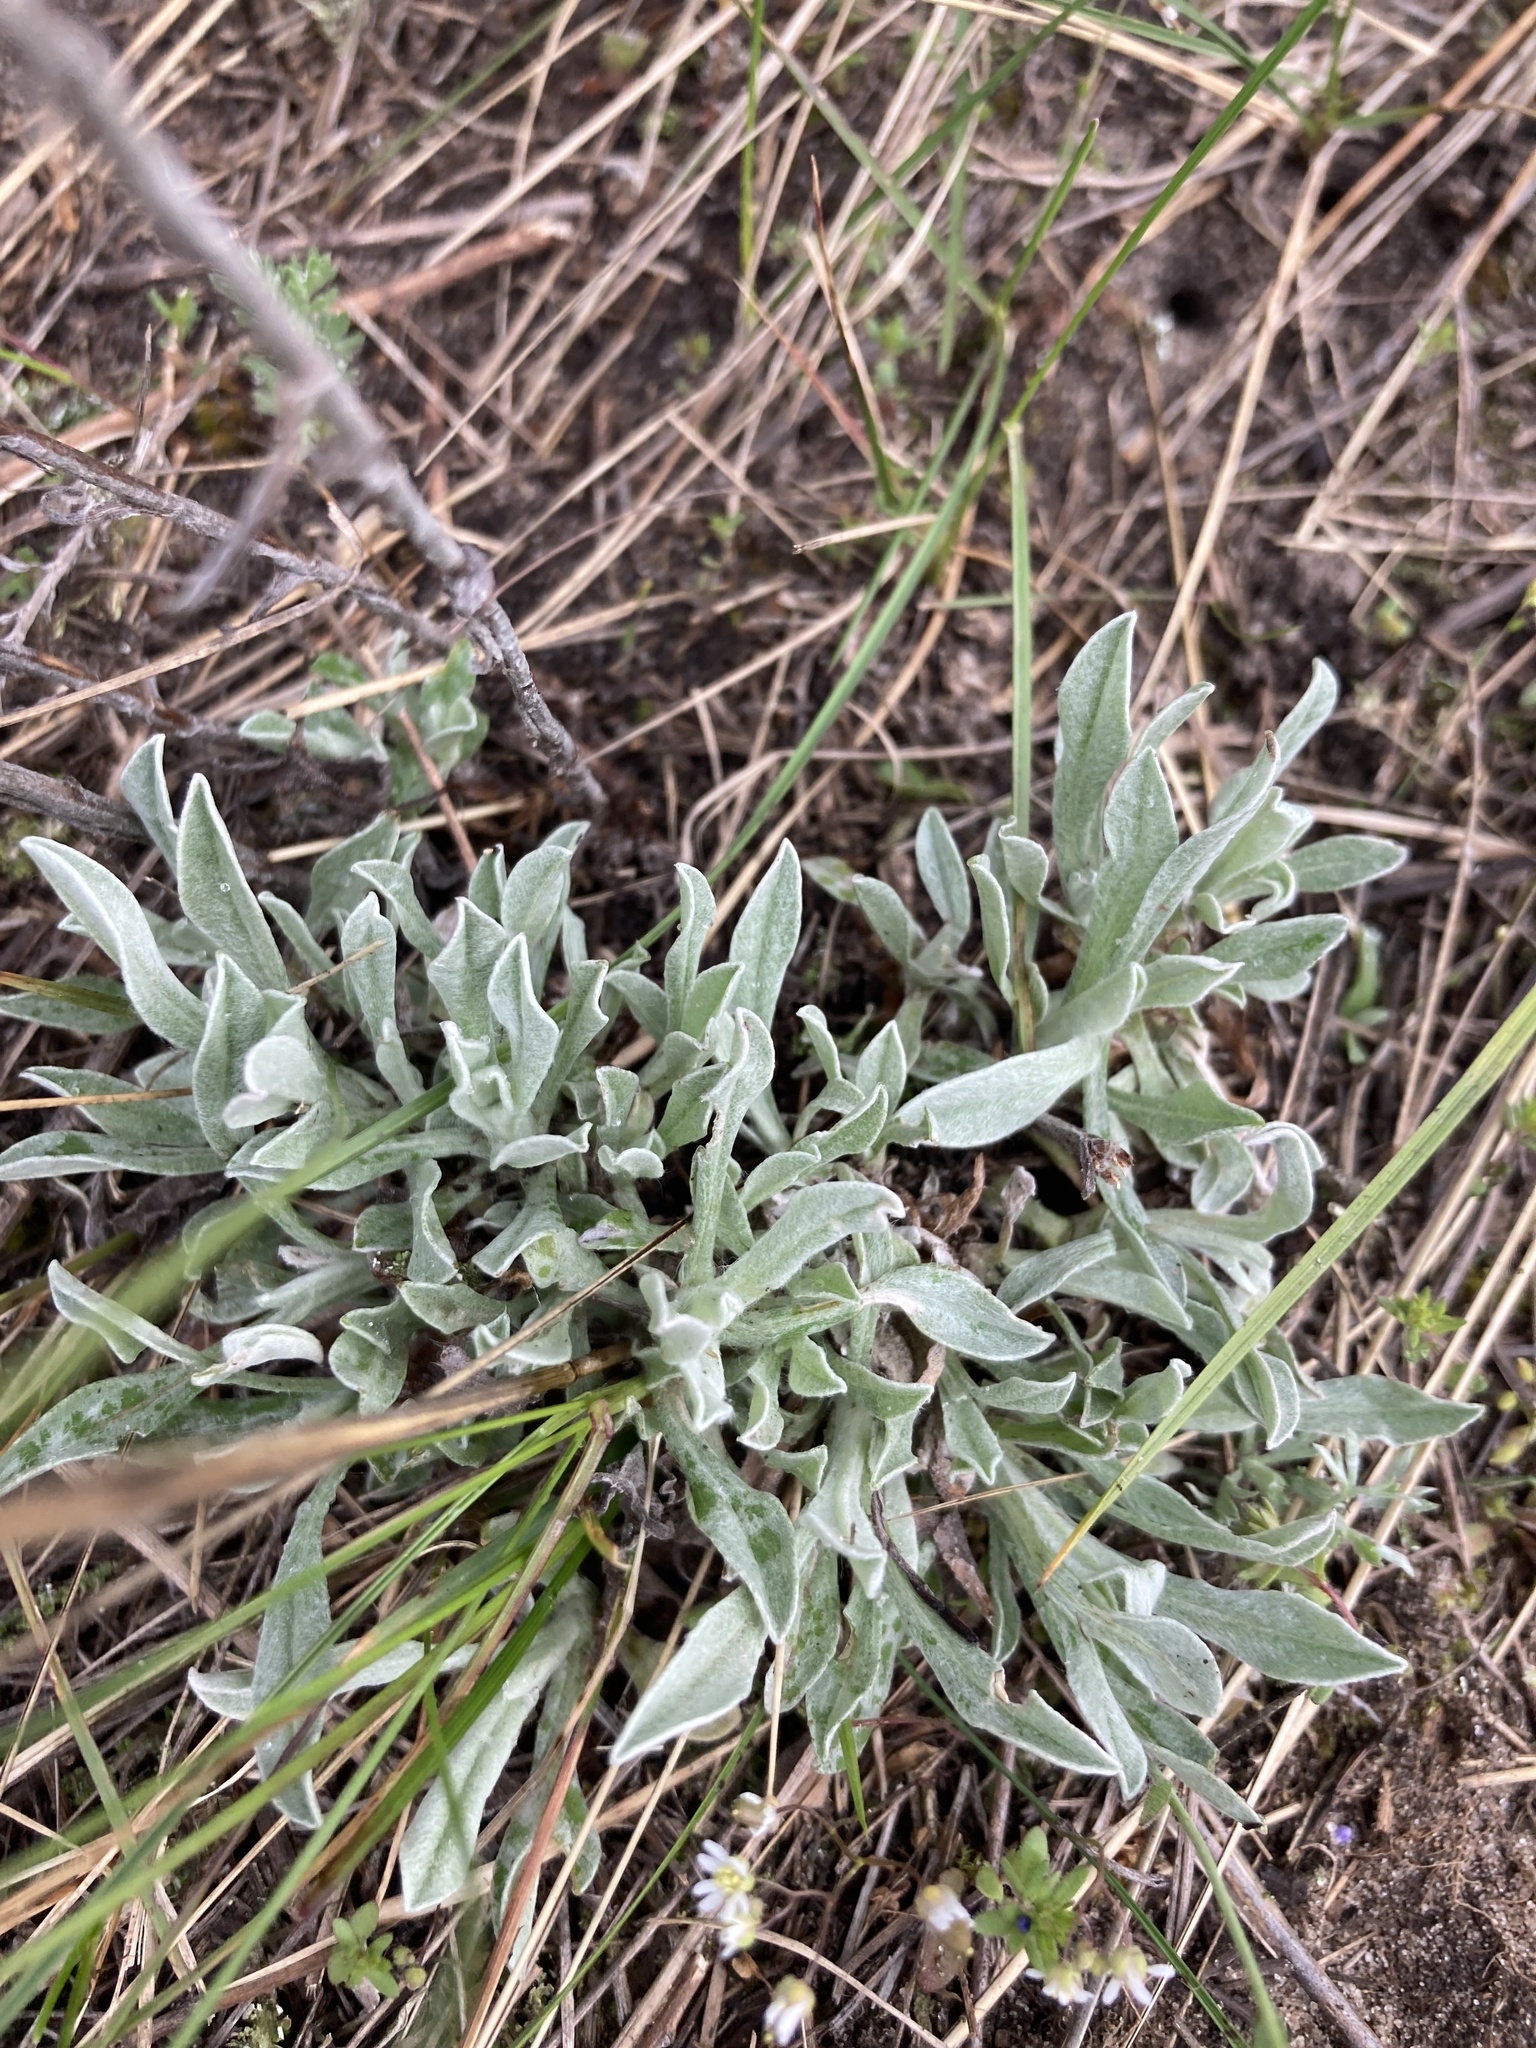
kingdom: Plantae
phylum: Tracheophyta
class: Magnoliopsida
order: Asterales
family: Asteraceae
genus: Helichrysum
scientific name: Helichrysum arenarium
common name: Strawflower
